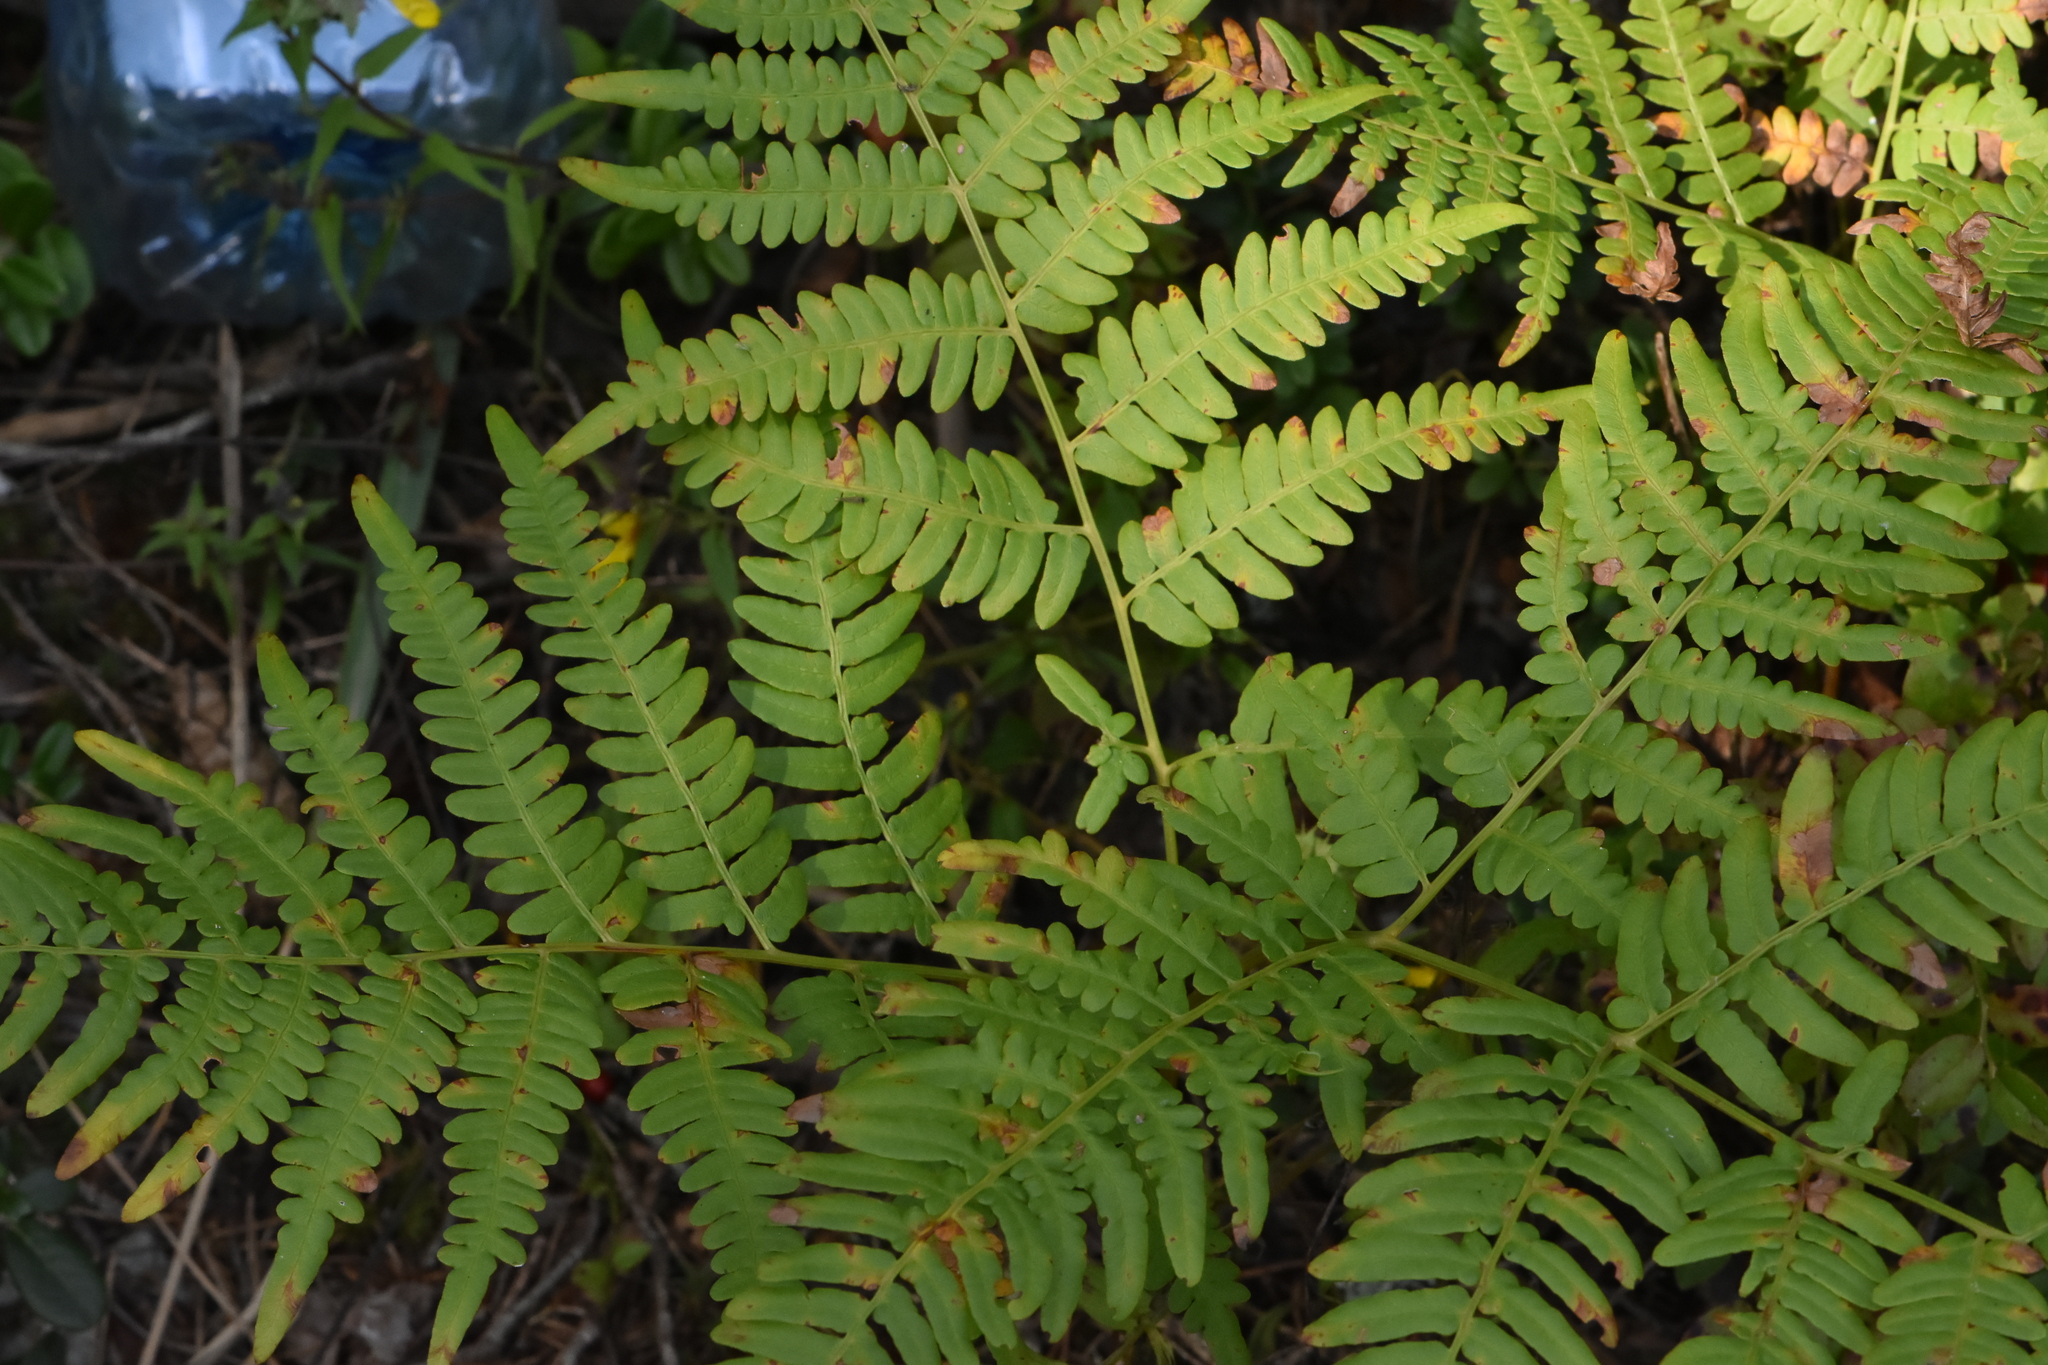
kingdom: Plantae
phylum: Tracheophyta
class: Polypodiopsida
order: Polypodiales
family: Dennstaedtiaceae
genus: Pteridium
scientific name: Pteridium aquilinum
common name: Bracken
